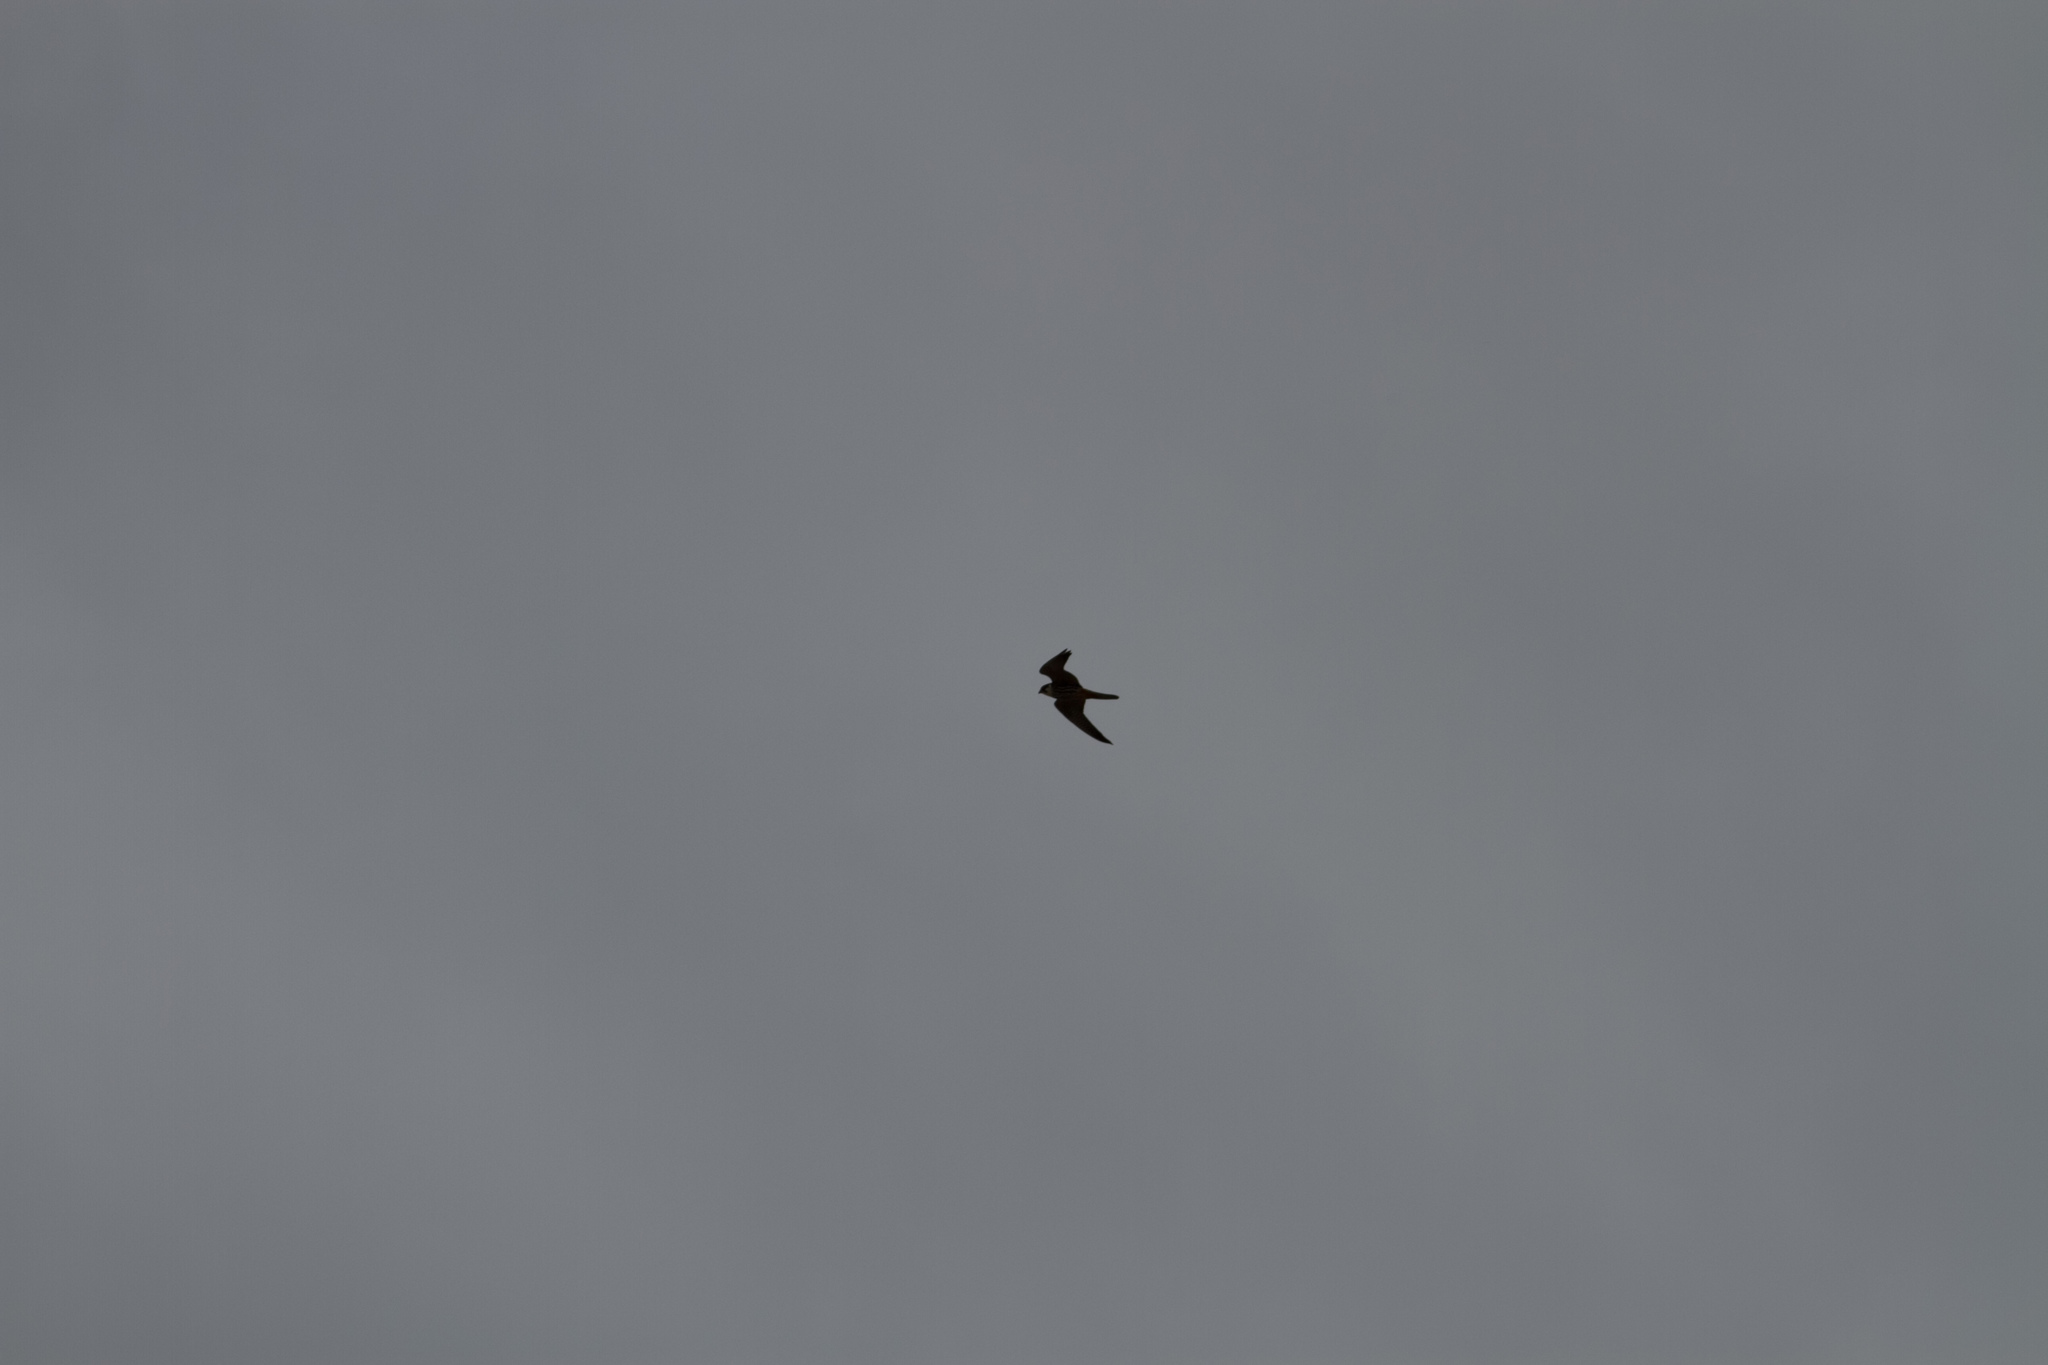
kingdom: Animalia
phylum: Chordata
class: Aves
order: Falconiformes
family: Falconidae
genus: Falco
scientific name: Falco subbuteo
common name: Eurasian hobby
